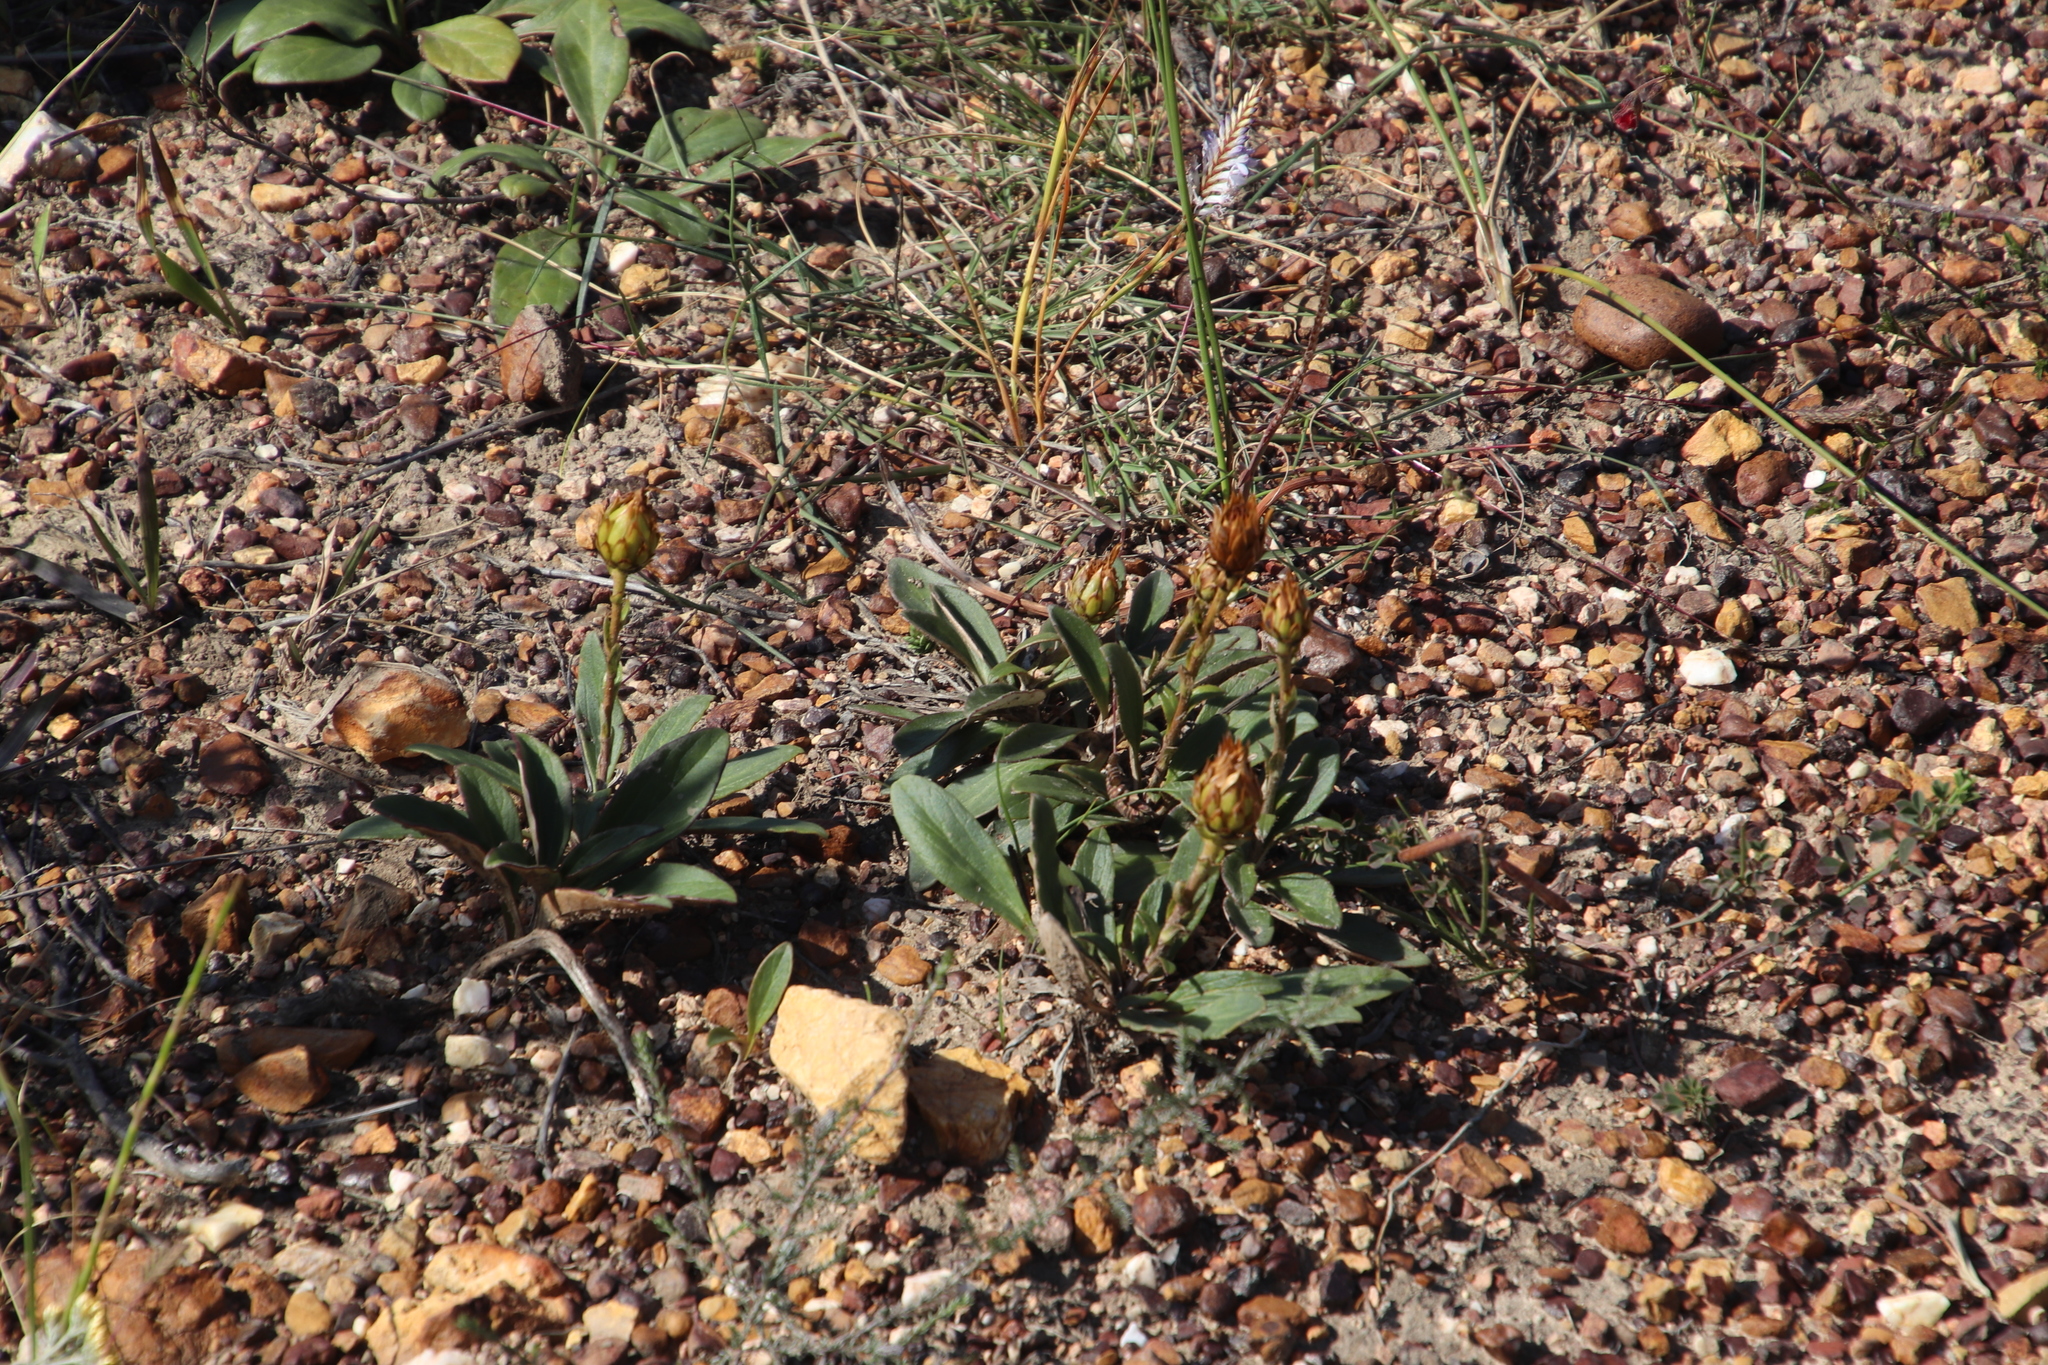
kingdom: Plantae
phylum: Tracheophyta
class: Magnoliopsida
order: Asterales
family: Asteraceae
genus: Berkheya
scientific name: Berkheya herbacea
